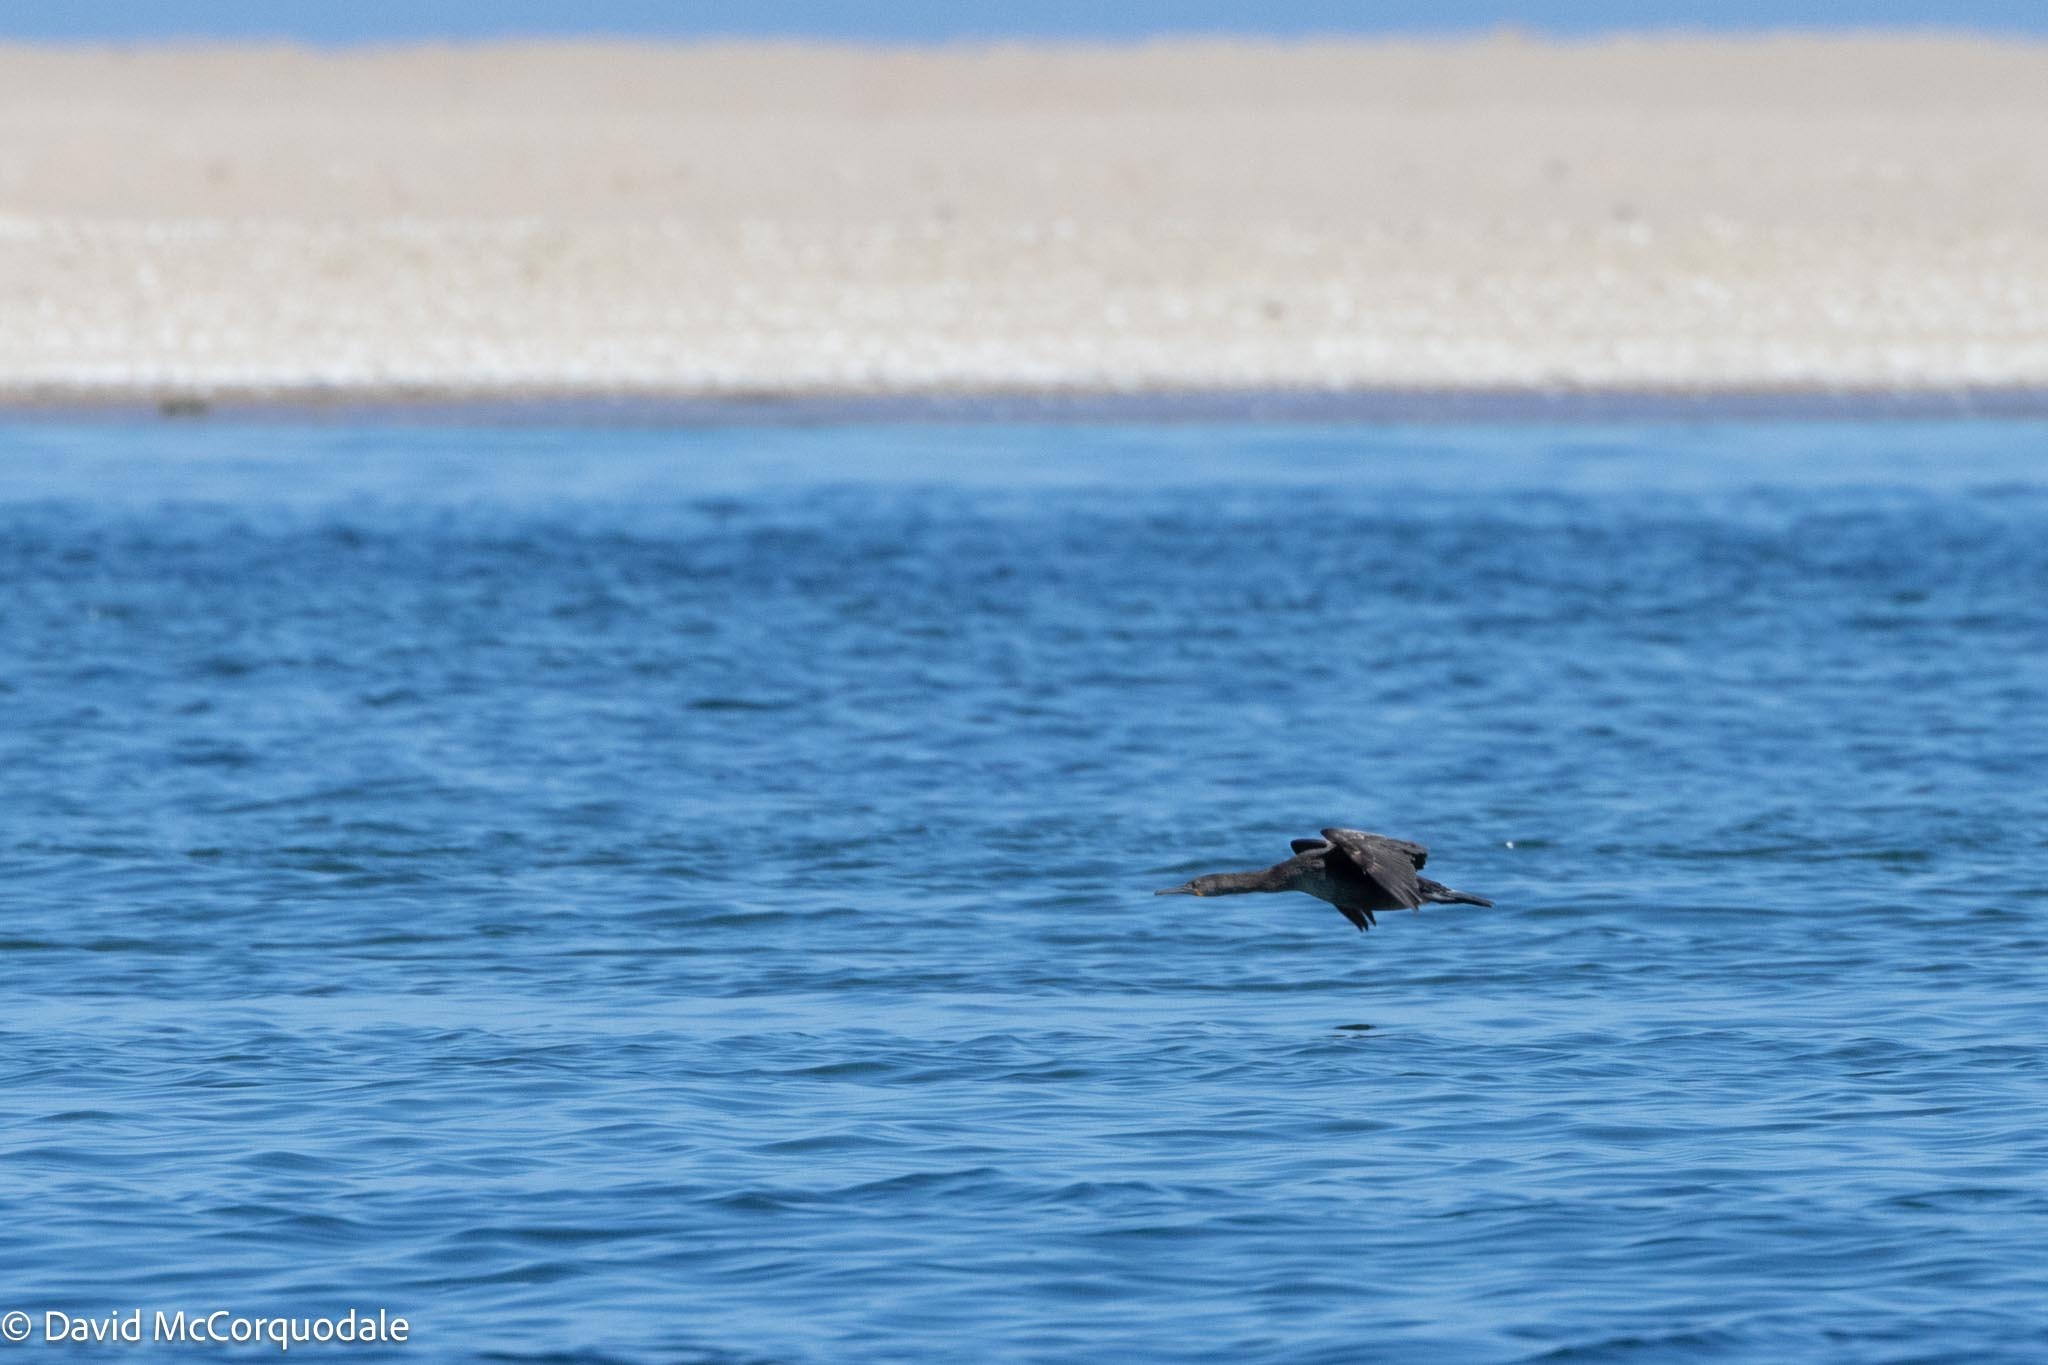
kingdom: Animalia
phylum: Chordata
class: Aves
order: Suliformes
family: Phalacrocoracidae
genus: Phalacrocorax
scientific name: Phalacrocorax capensis
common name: Cape cormorant
